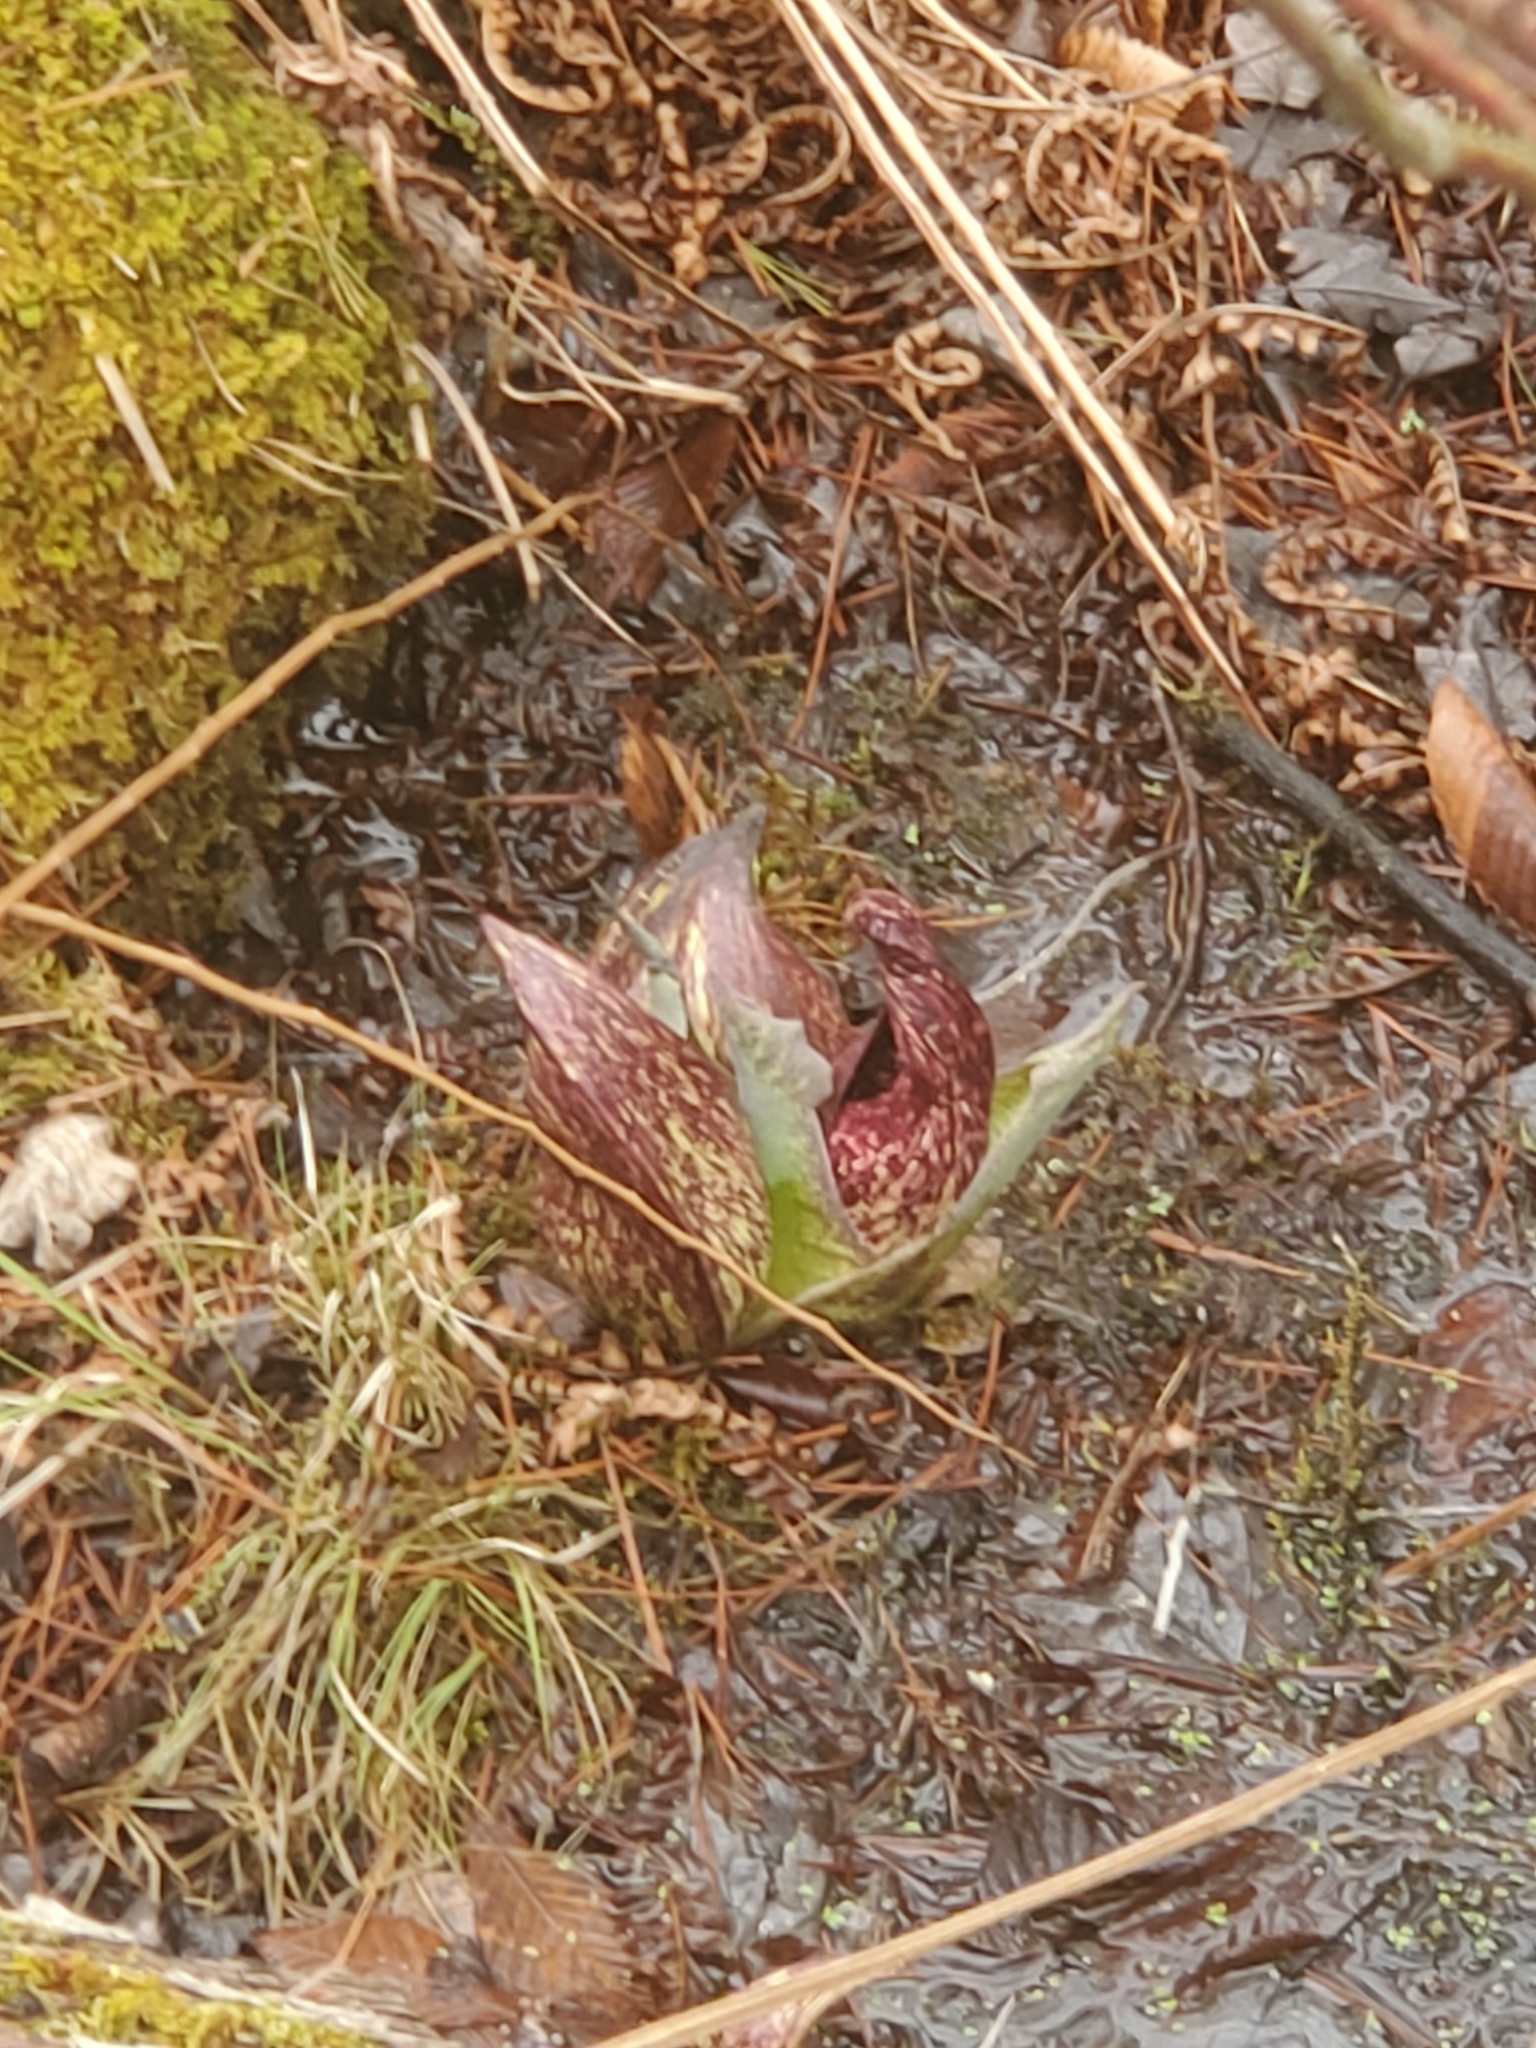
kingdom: Plantae
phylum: Tracheophyta
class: Liliopsida
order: Alismatales
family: Araceae
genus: Symplocarpus
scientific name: Symplocarpus foetidus
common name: Eastern skunk cabbage
